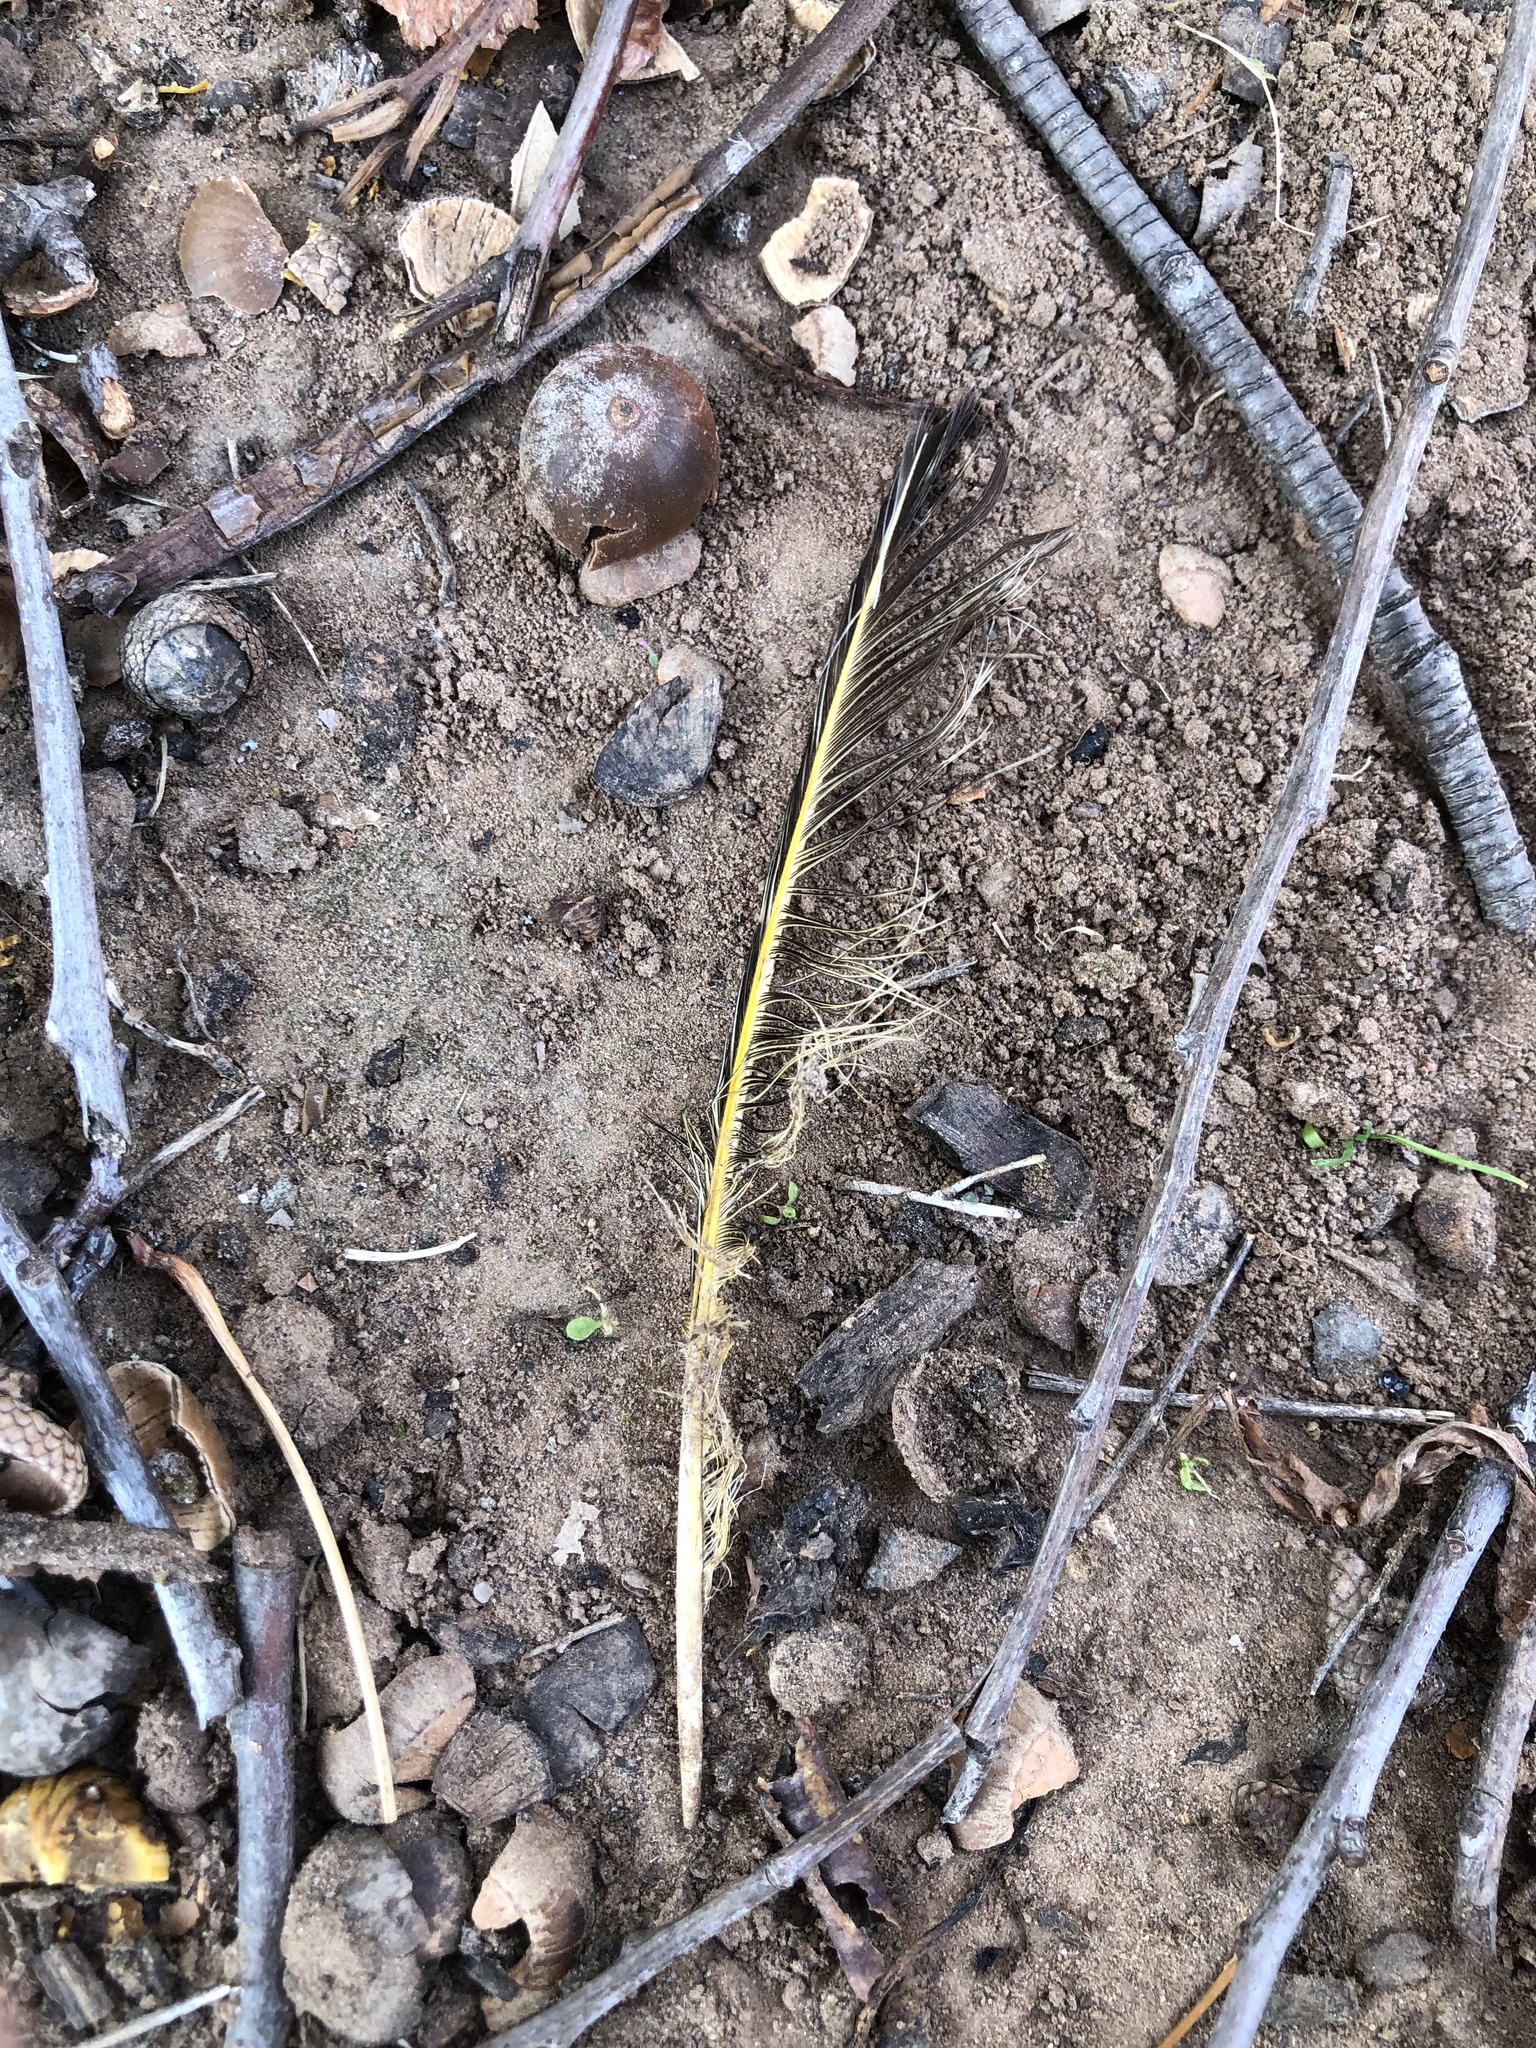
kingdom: Animalia
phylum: Chordata
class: Aves
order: Piciformes
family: Picidae
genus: Colaptes
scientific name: Colaptes auratus
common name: Northern flicker
